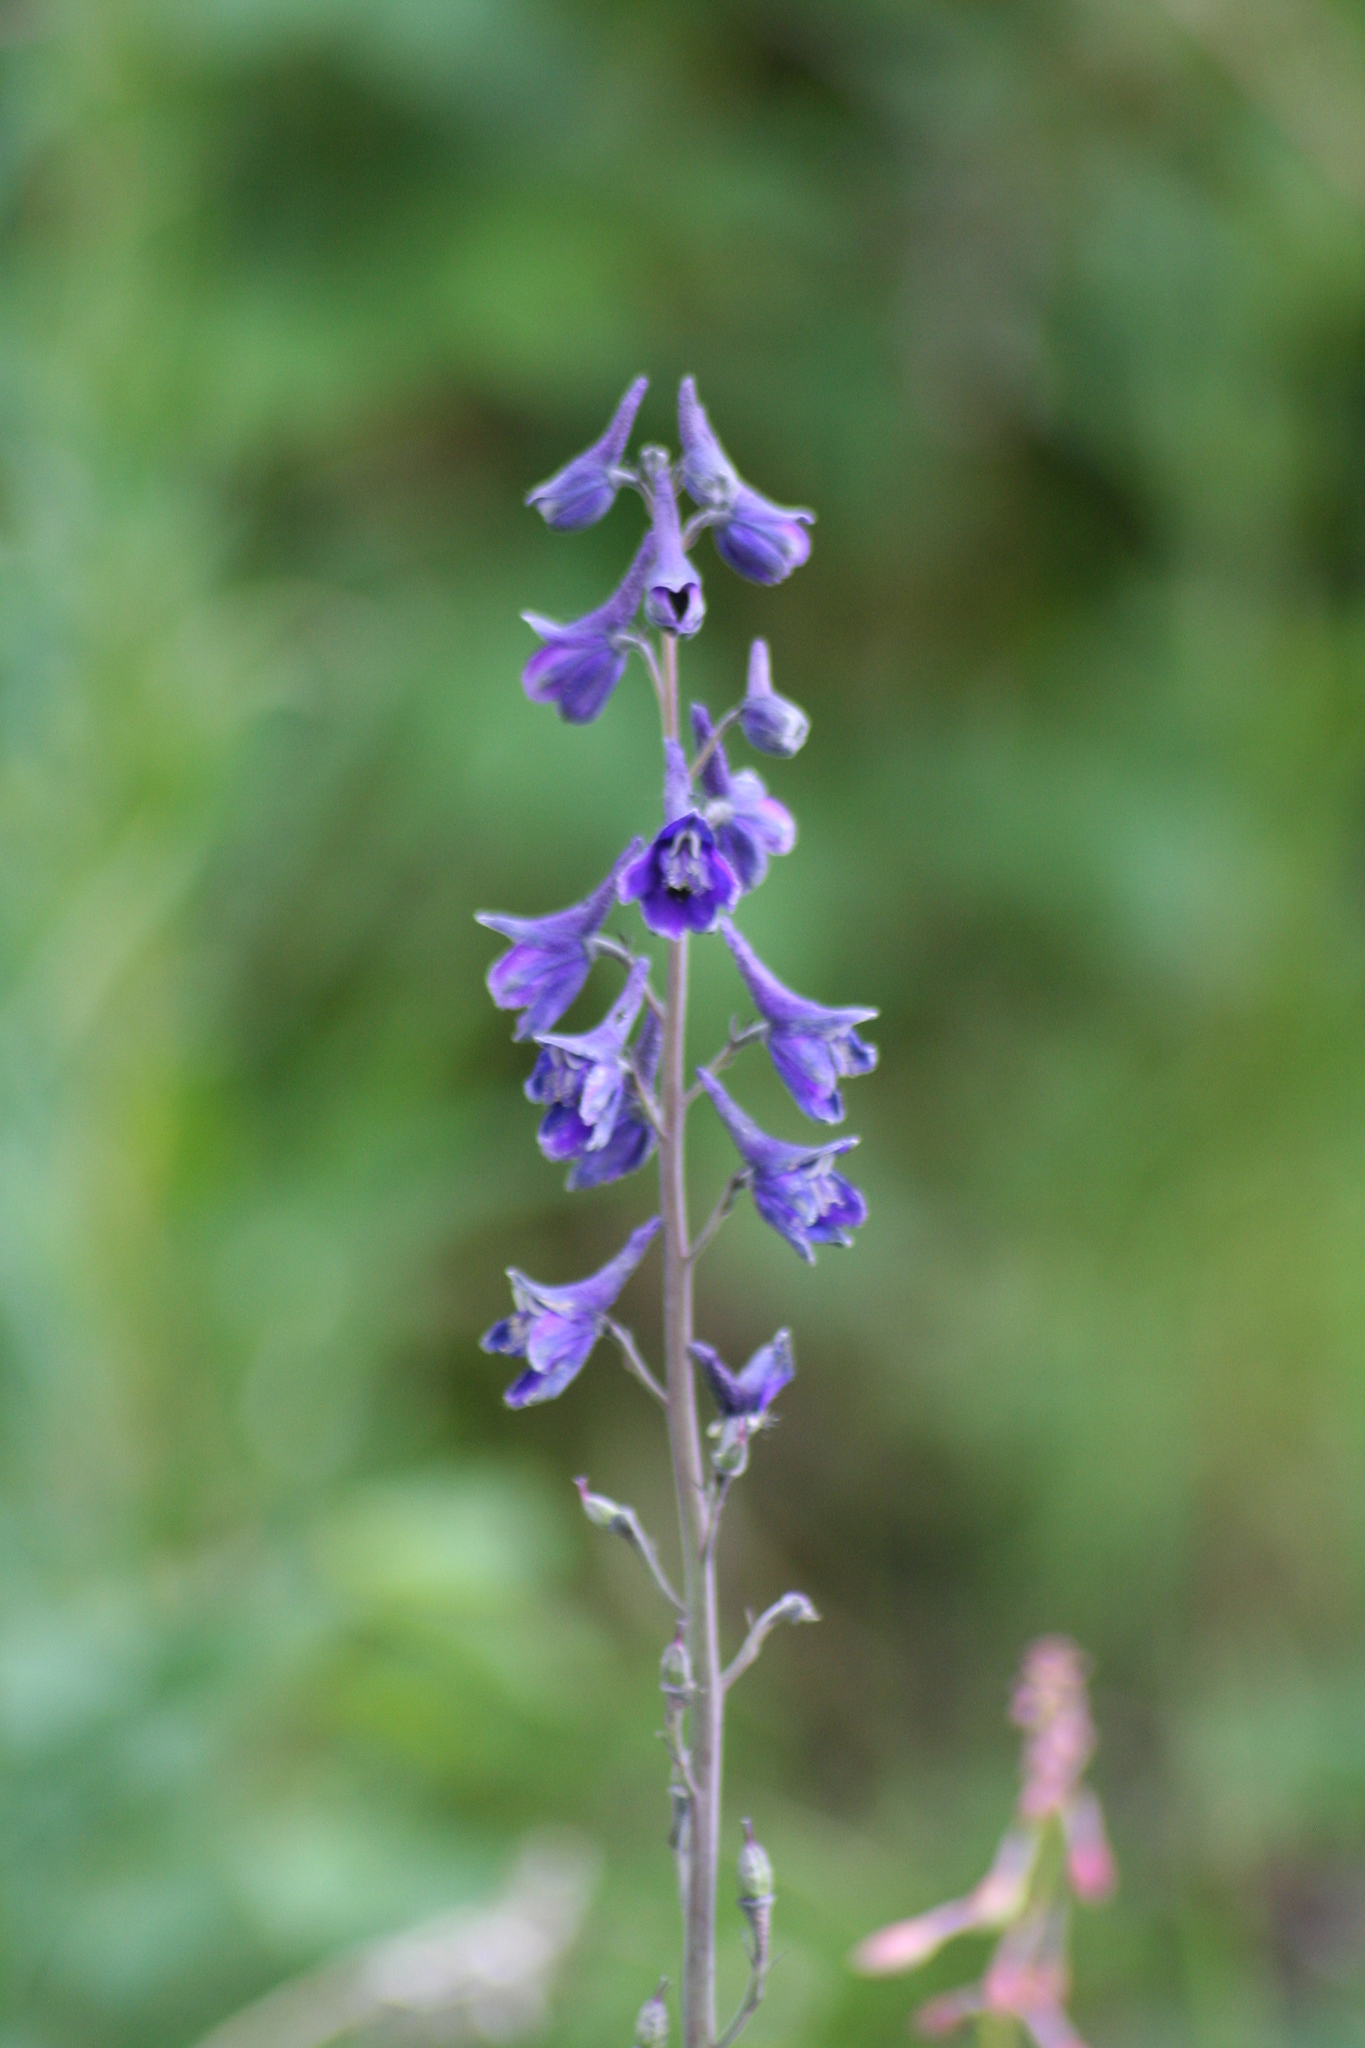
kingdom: Plantae
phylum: Tracheophyta
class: Magnoliopsida
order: Ranunculales
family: Ranunculaceae
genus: Delphinium
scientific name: Delphinium glaucum
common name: Brown's larkspur
